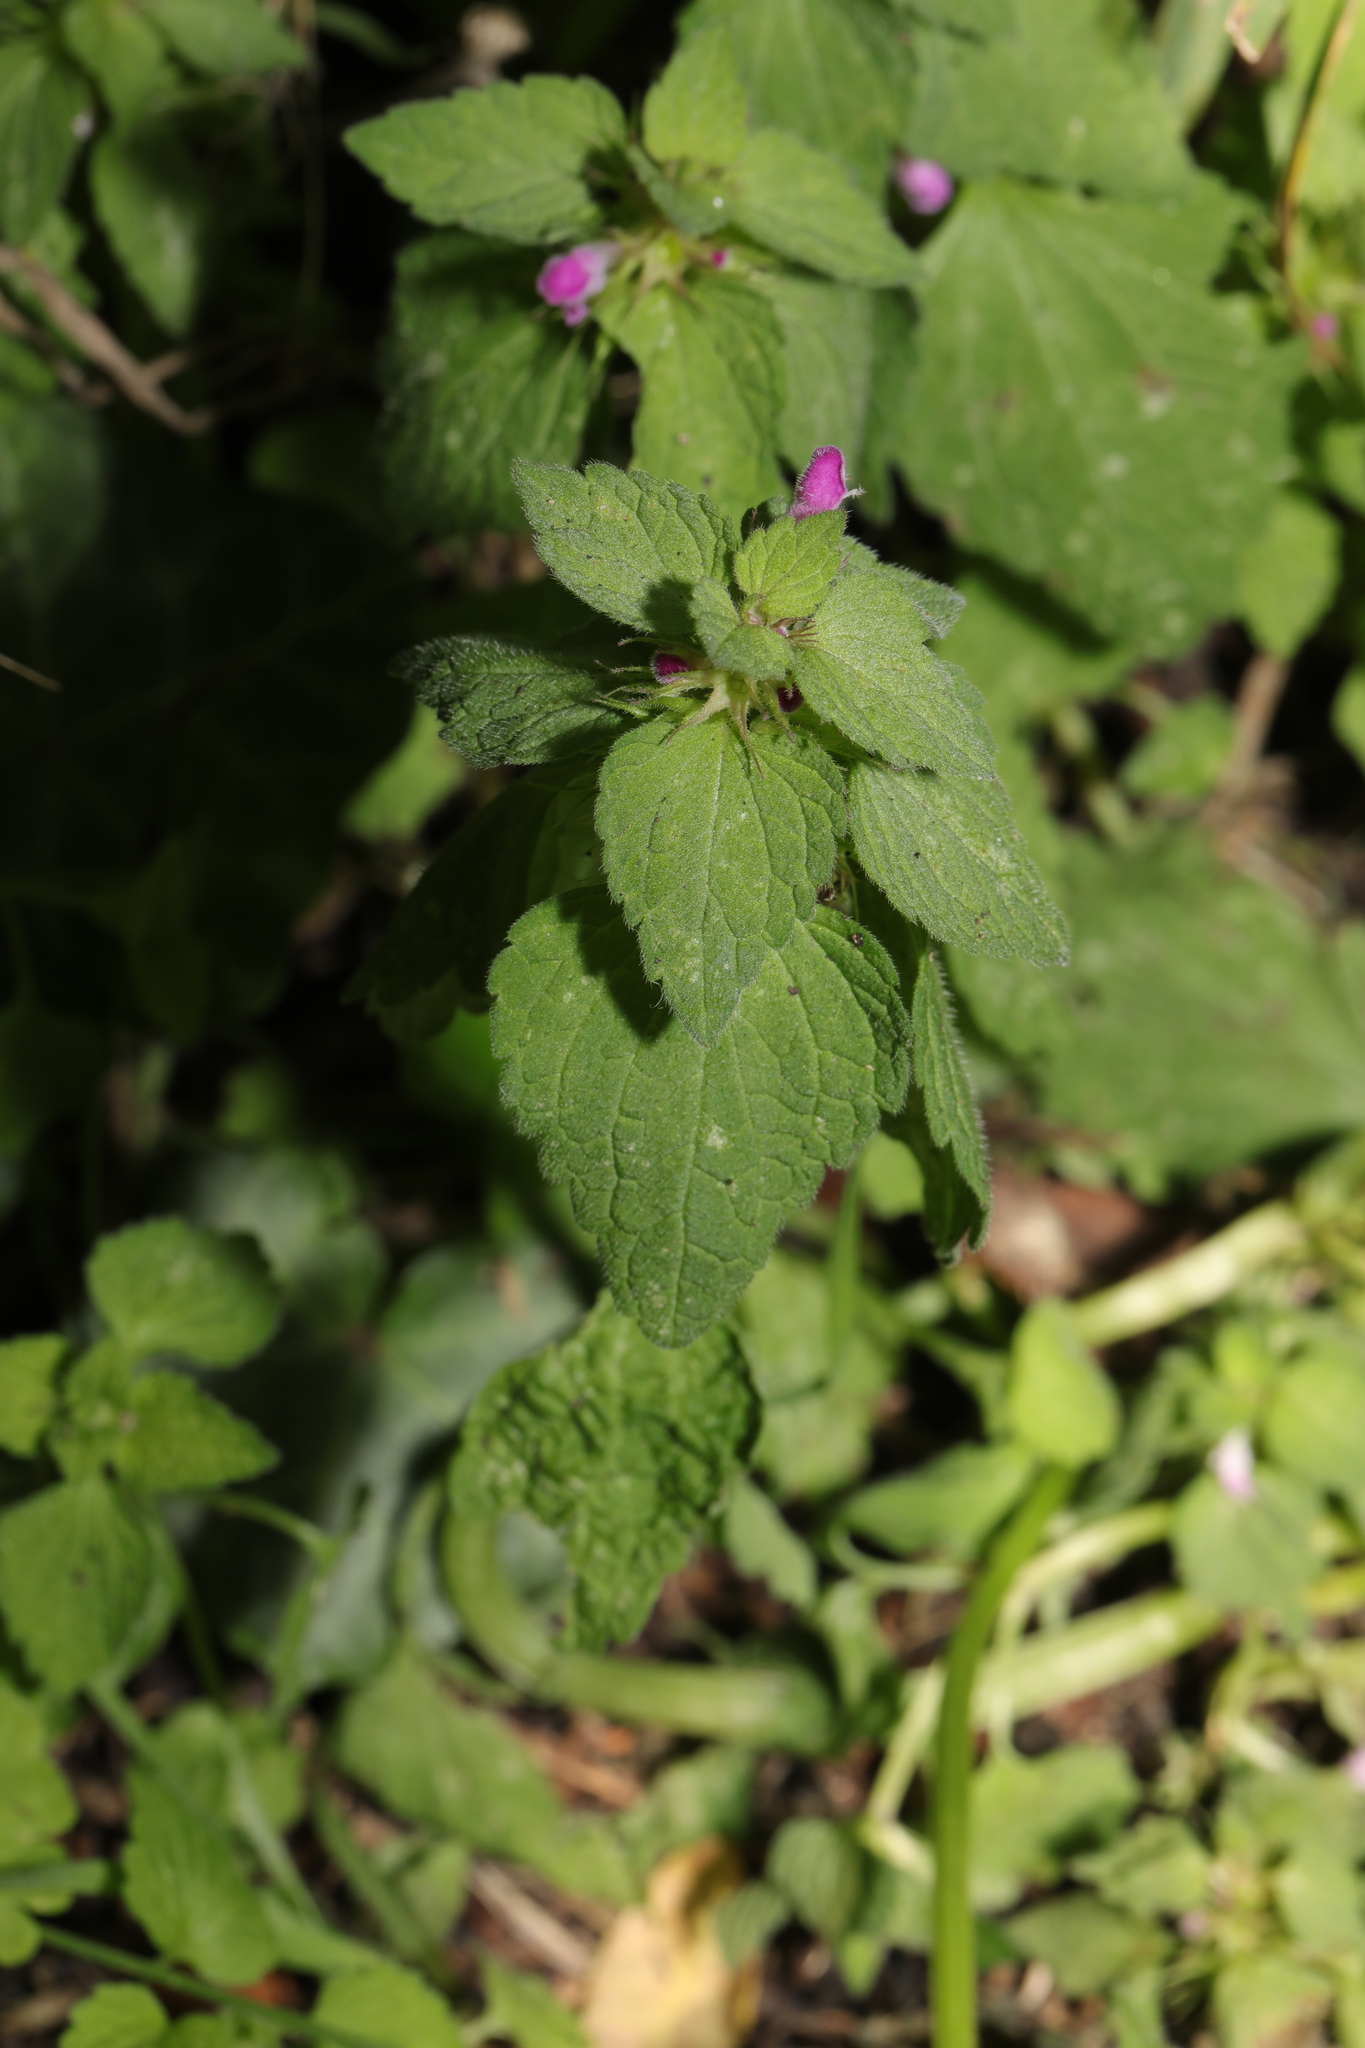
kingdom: Plantae
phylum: Tracheophyta
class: Magnoliopsida
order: Lamiales
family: Lamiaceae
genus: Lamium
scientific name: Lamium purpureum
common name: Red dead-nettle
